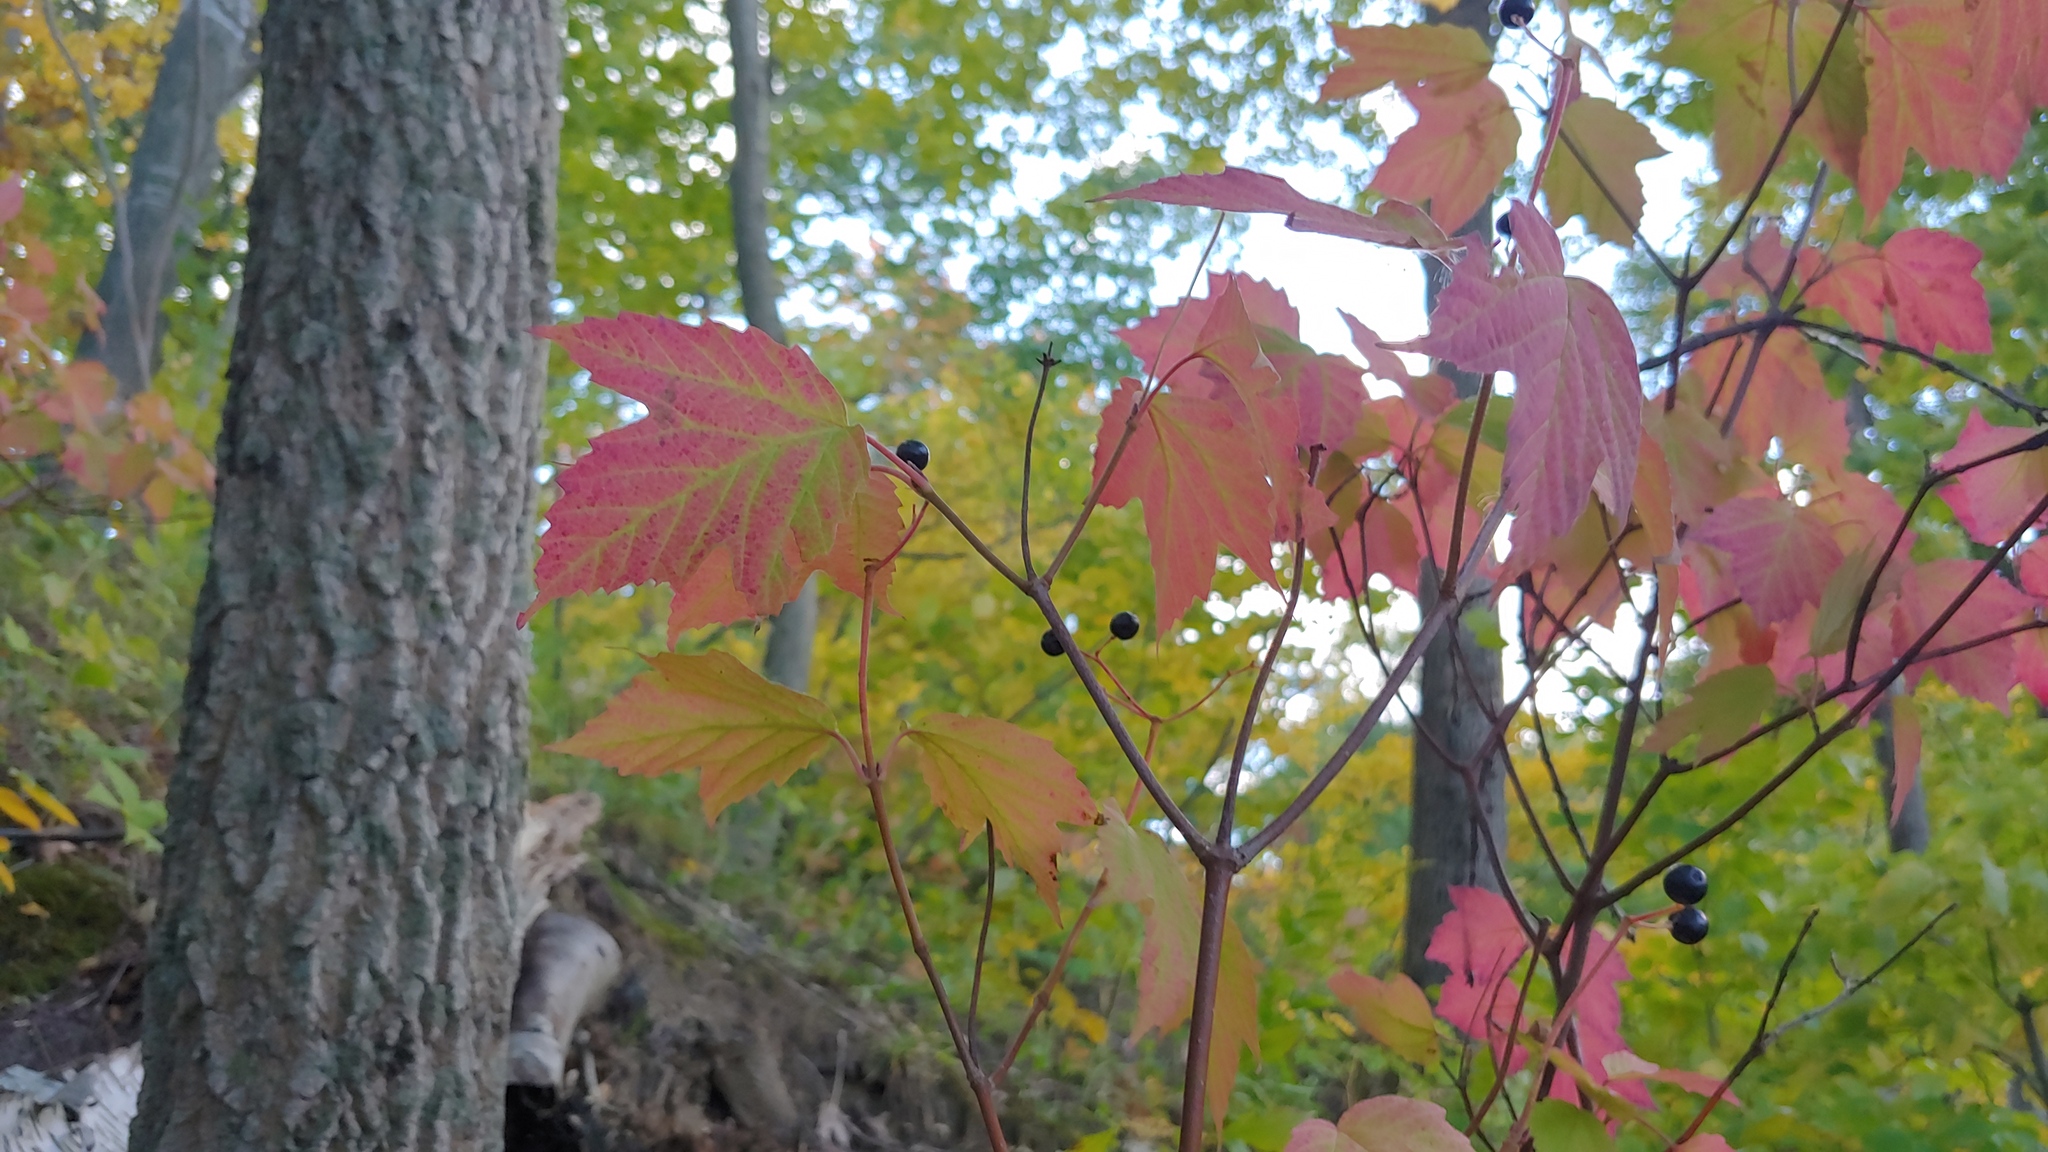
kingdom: Plantae
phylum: Tracheophyta
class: Magnoliopsida
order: Dipsacales
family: Viburnaceae
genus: Viburnum
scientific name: Viburnum acerifolium
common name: Dockmackie
